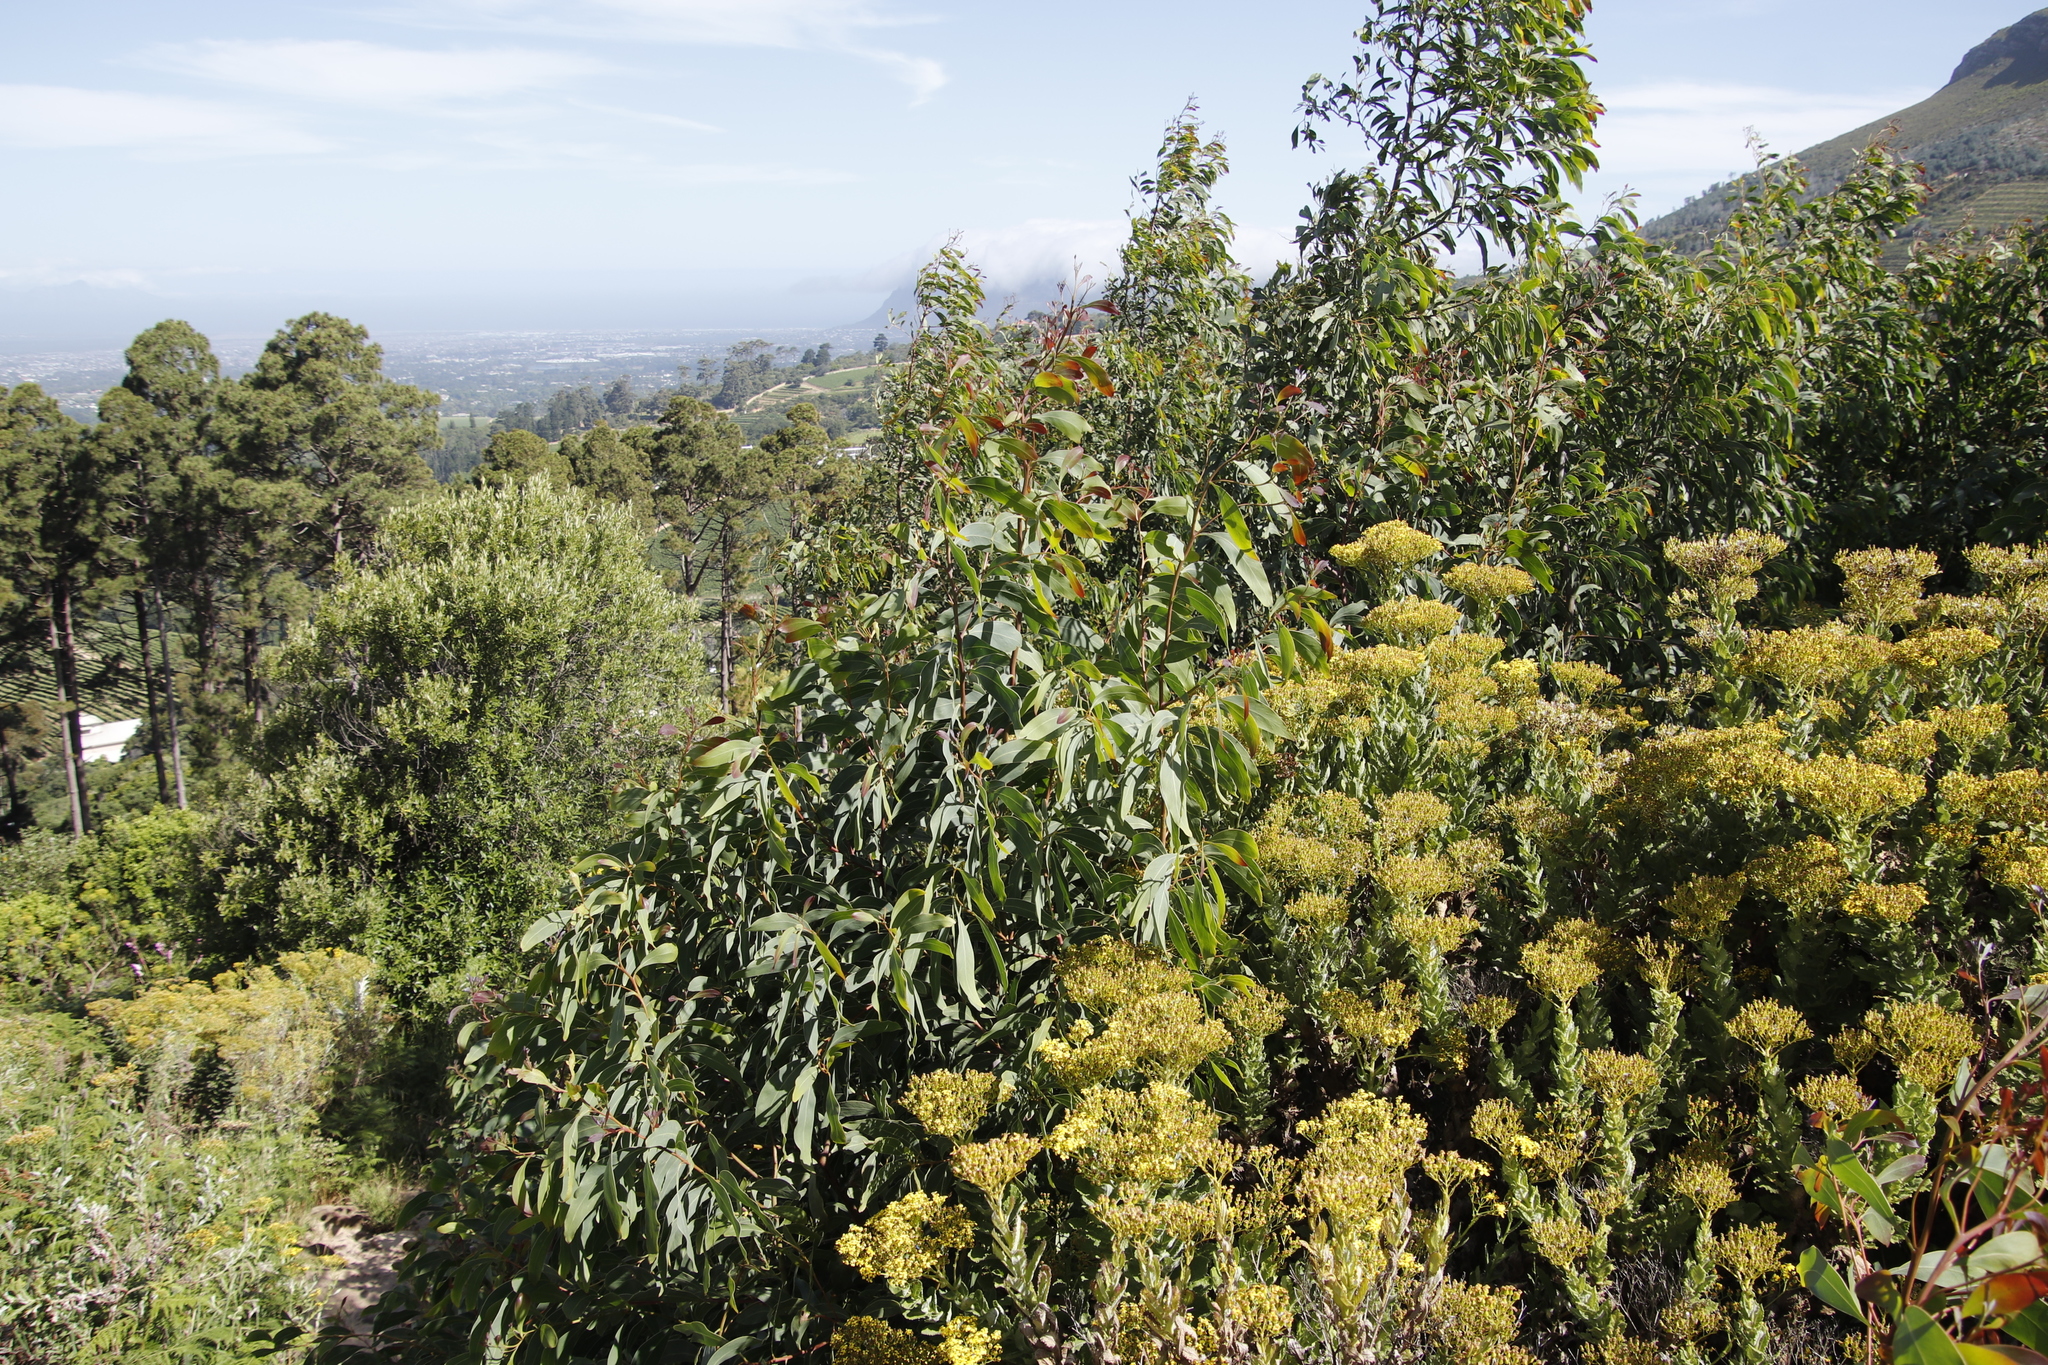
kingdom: Plantae
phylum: Tracheophyta
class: Magnoliopsida
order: Fabales
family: Fabaceae
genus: Acacia
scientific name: Acacia falciformis
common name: Tanning wattle
